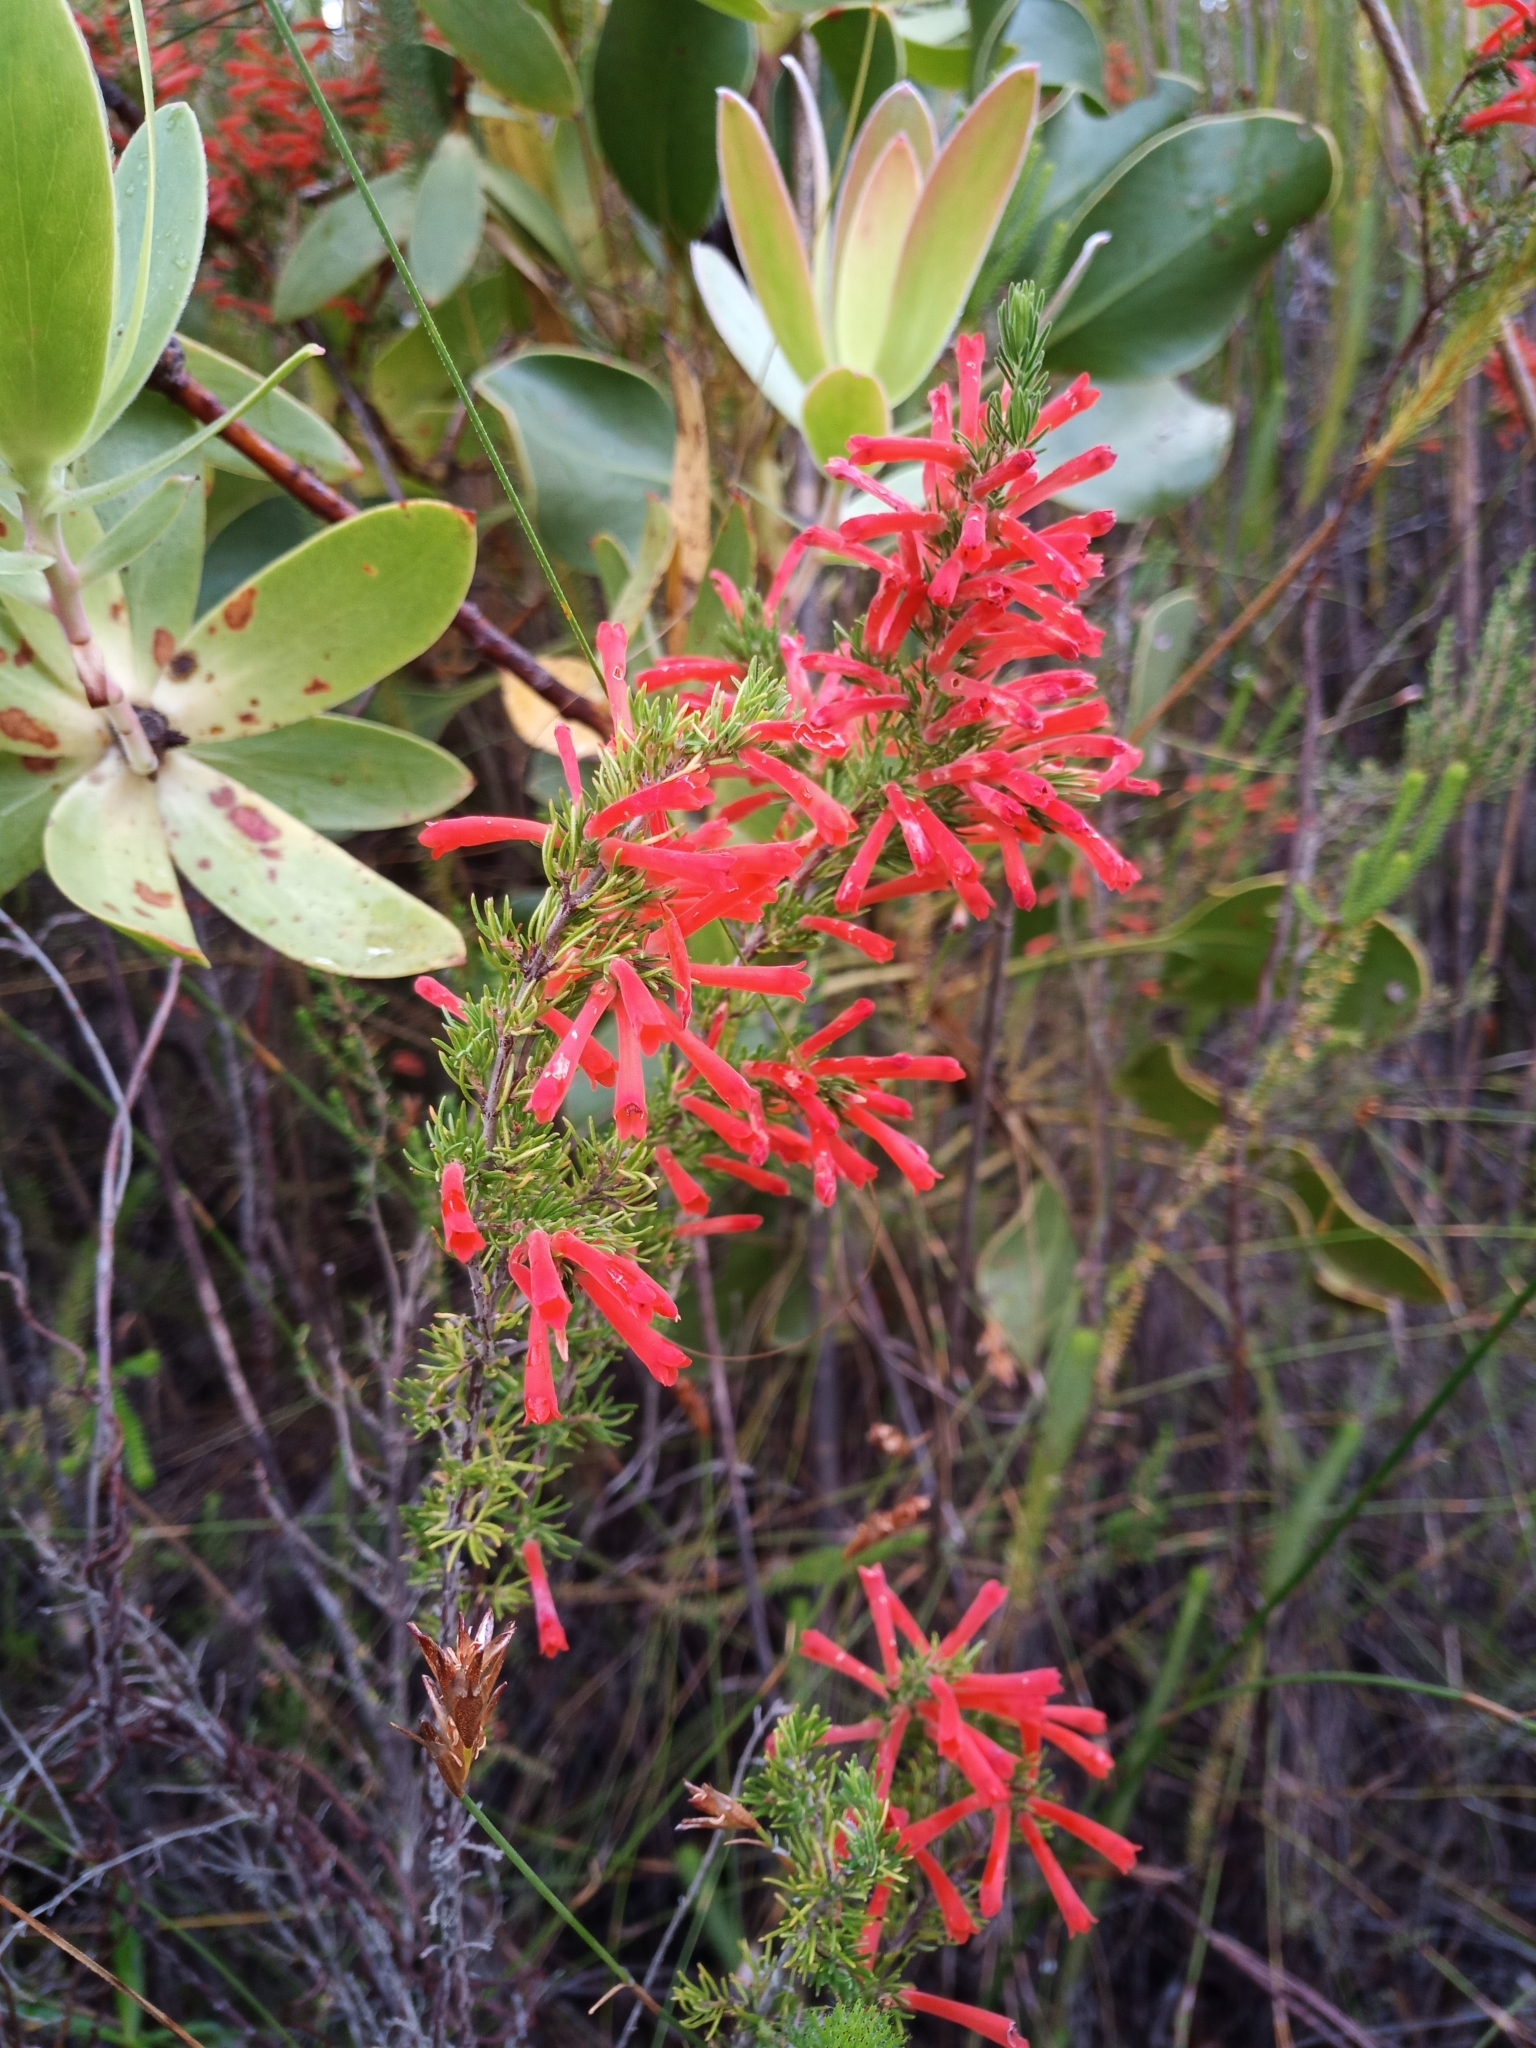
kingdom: Plantae
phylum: Tracheophyta
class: Magnoliopsida
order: Ericales
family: Ericaceae
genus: Erica
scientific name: Erica pillansii
